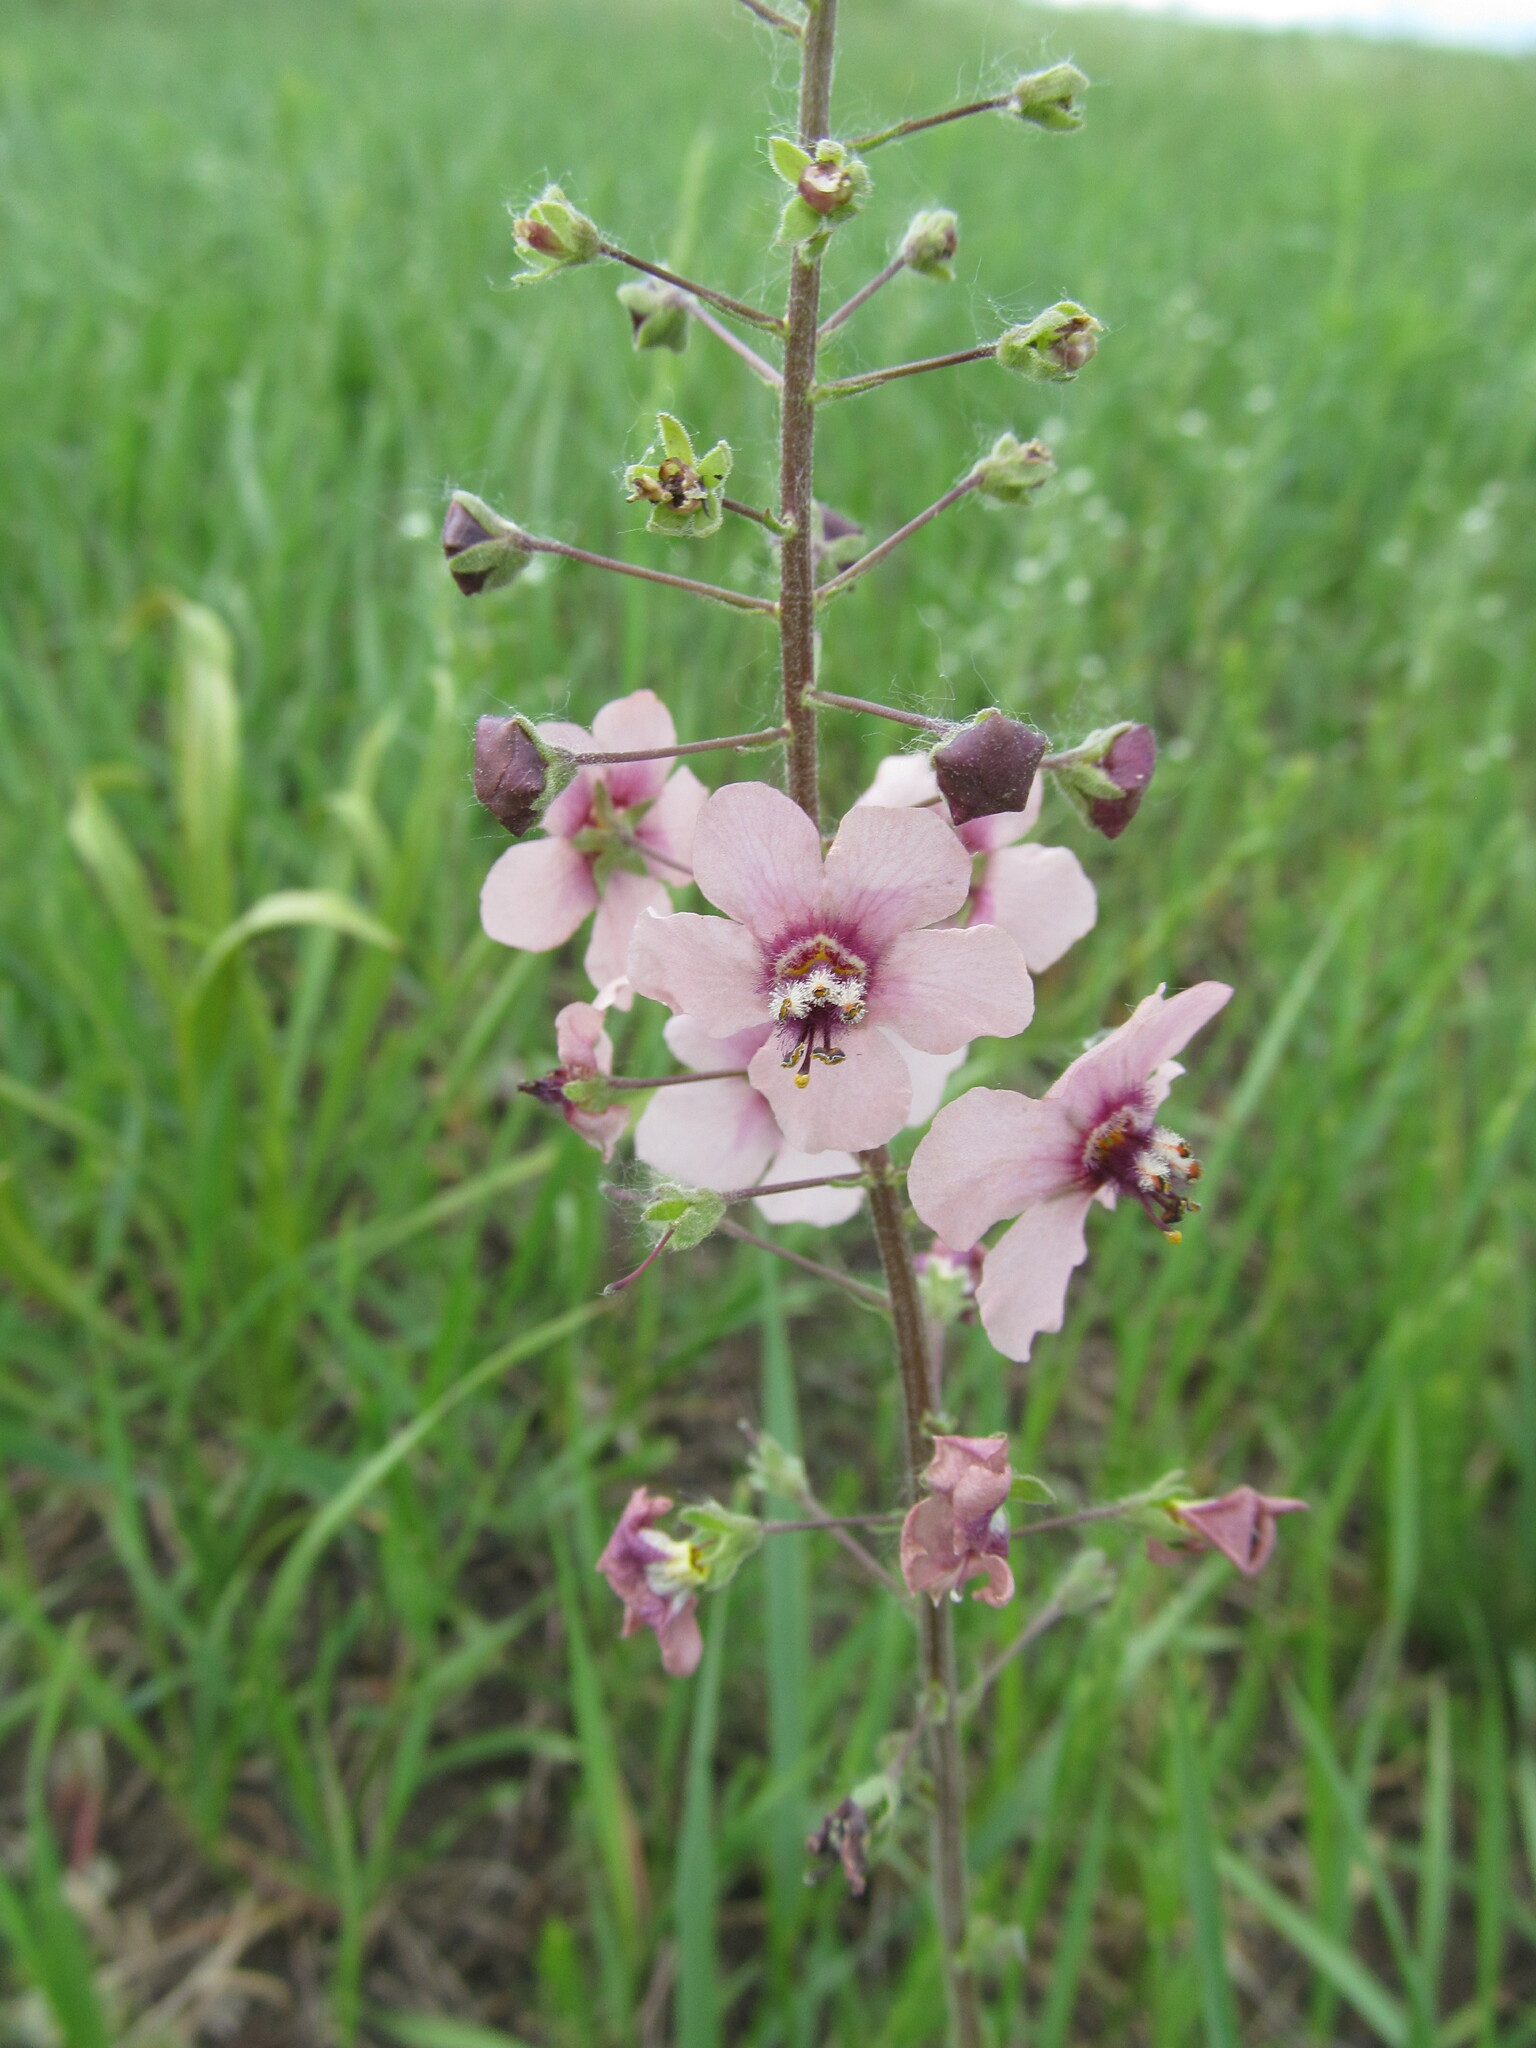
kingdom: Plantae
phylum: Tracheophyta
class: Magnoliopsida
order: Lamiales
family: Scrophulariaceae
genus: Verbascum
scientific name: Verbascum phoeniceum
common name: Purple mullein
